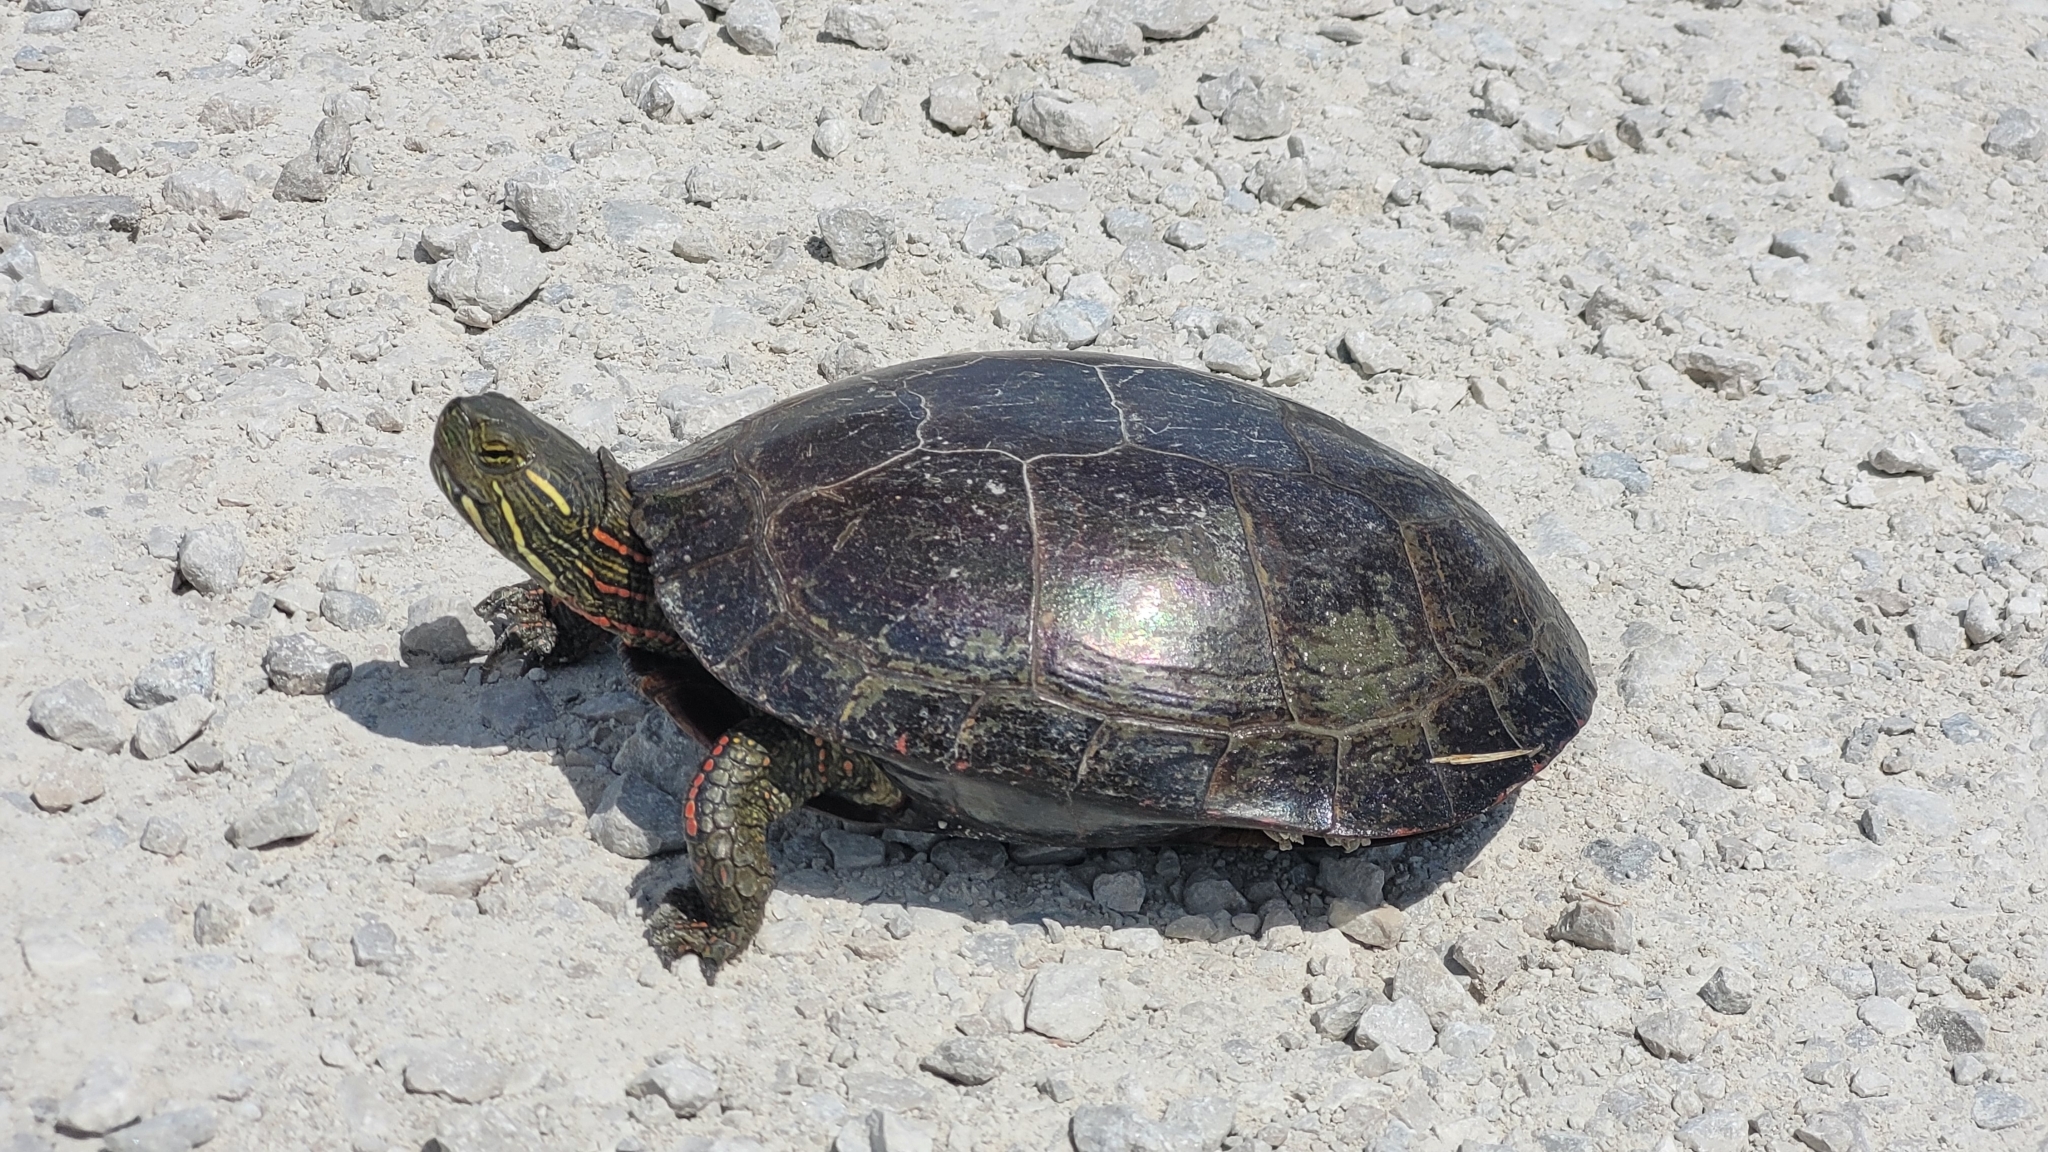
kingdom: Animalia
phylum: Chordata
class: Testudines
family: Emydidae
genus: Chrysemys
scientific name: Chrysemys picta
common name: Painted turtle
